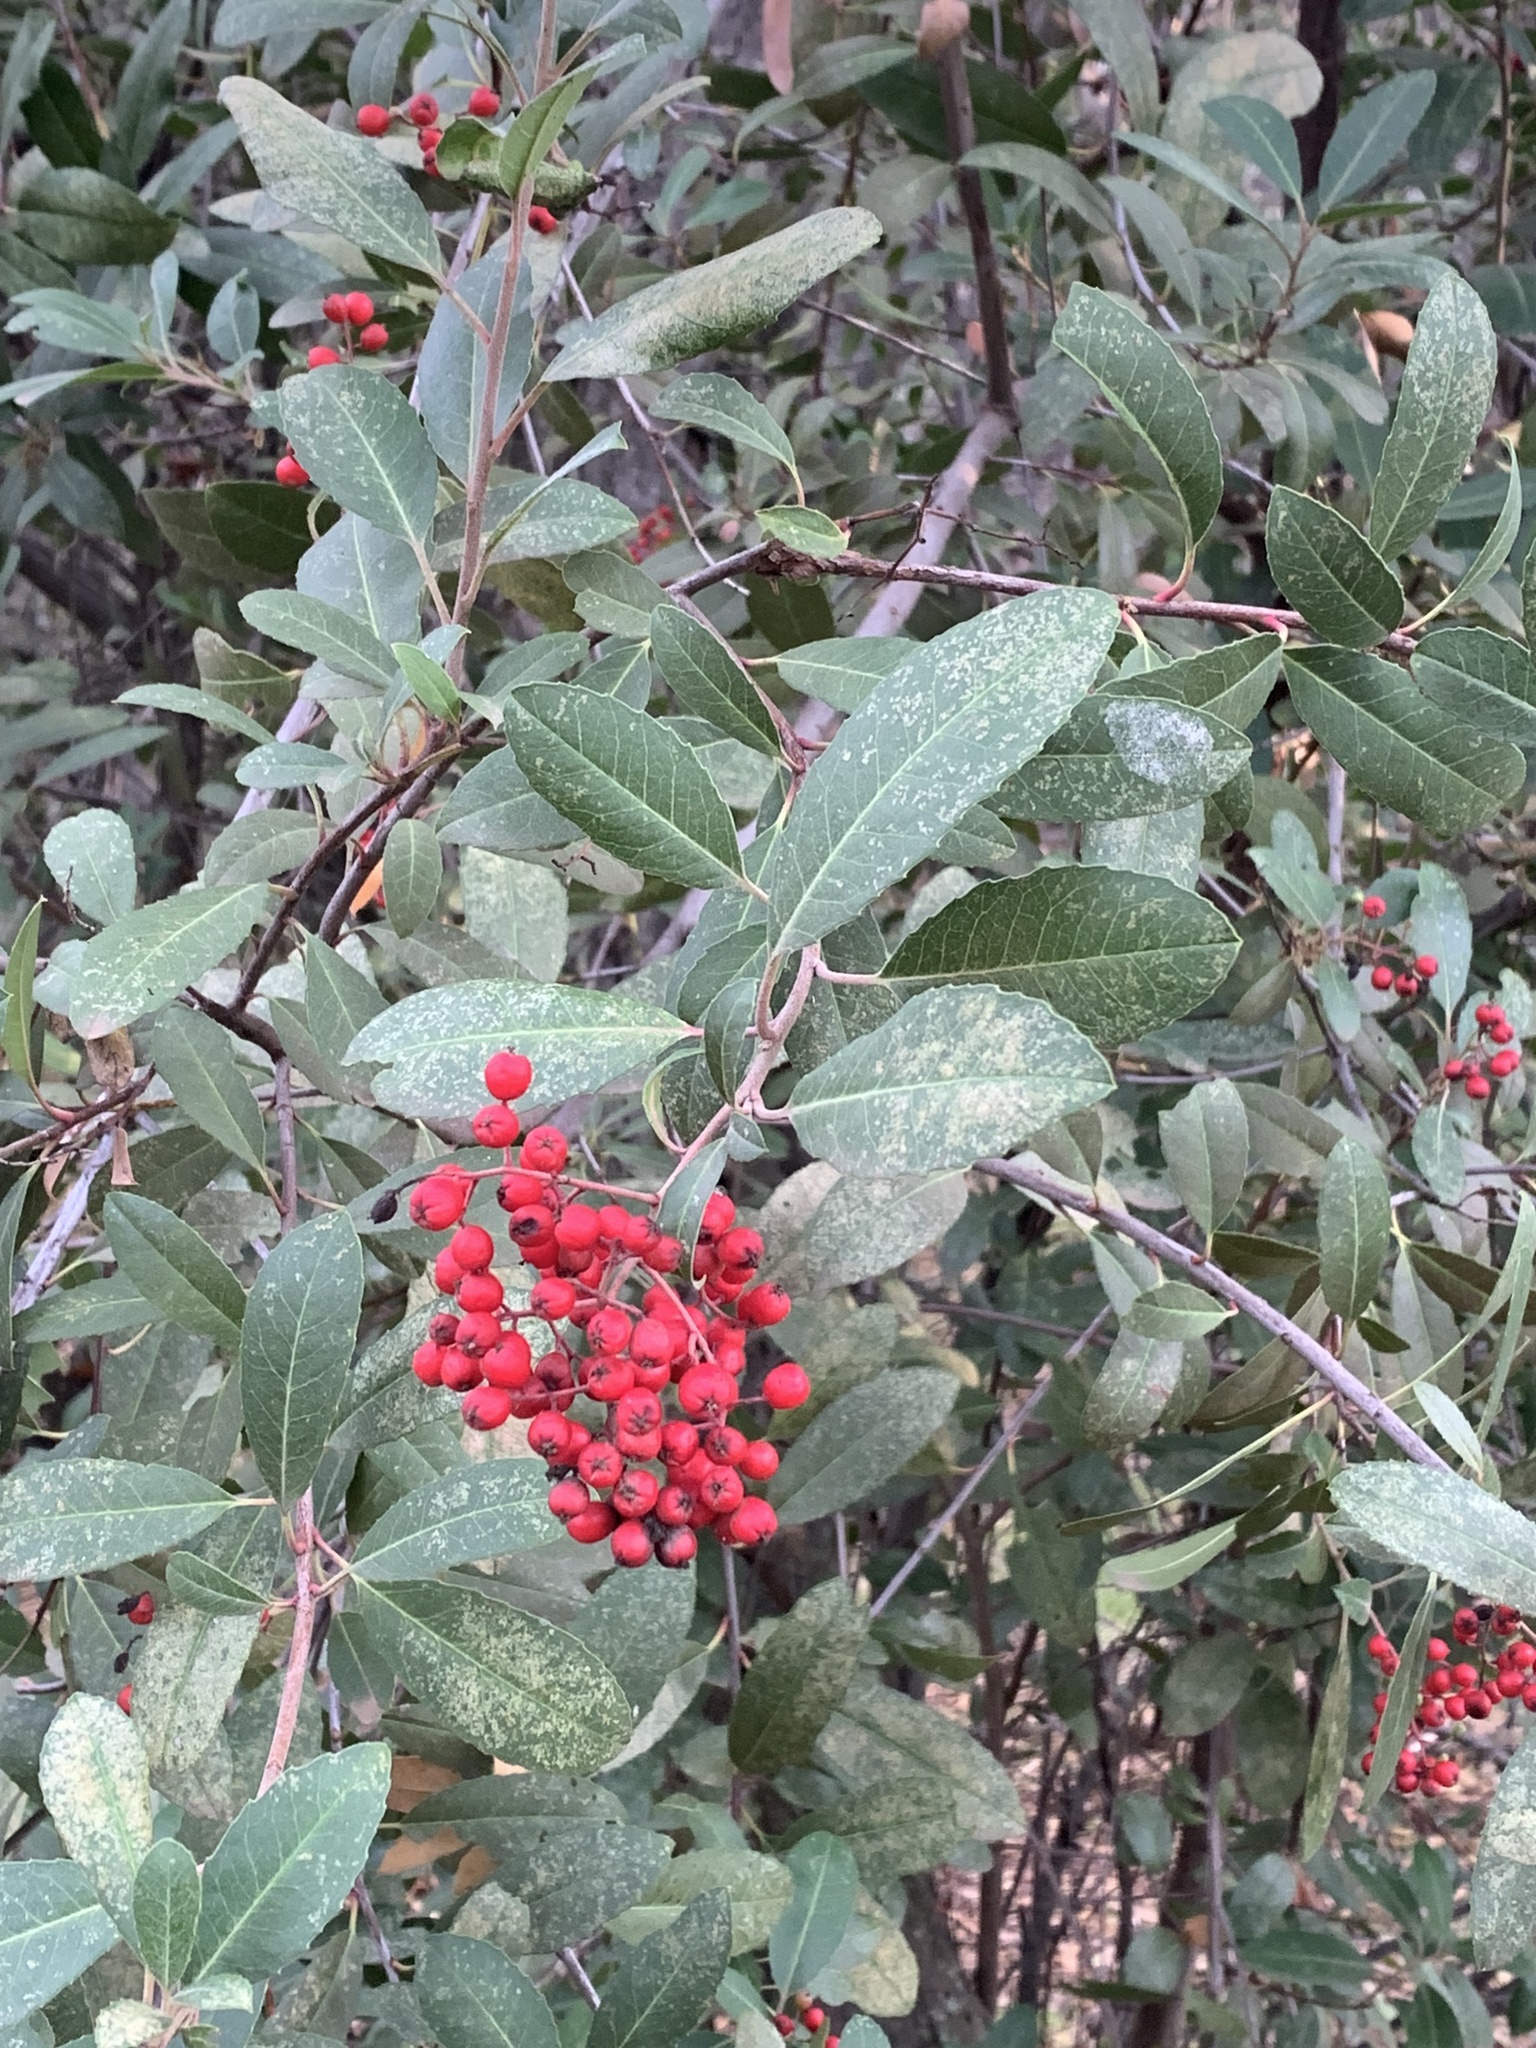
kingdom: Plantae
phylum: Tracheophyta
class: Magnoliopsida
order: Rosales
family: Rosaceae
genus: Heteromeles
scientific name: Heteromeles arbutifolia
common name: California-holly
